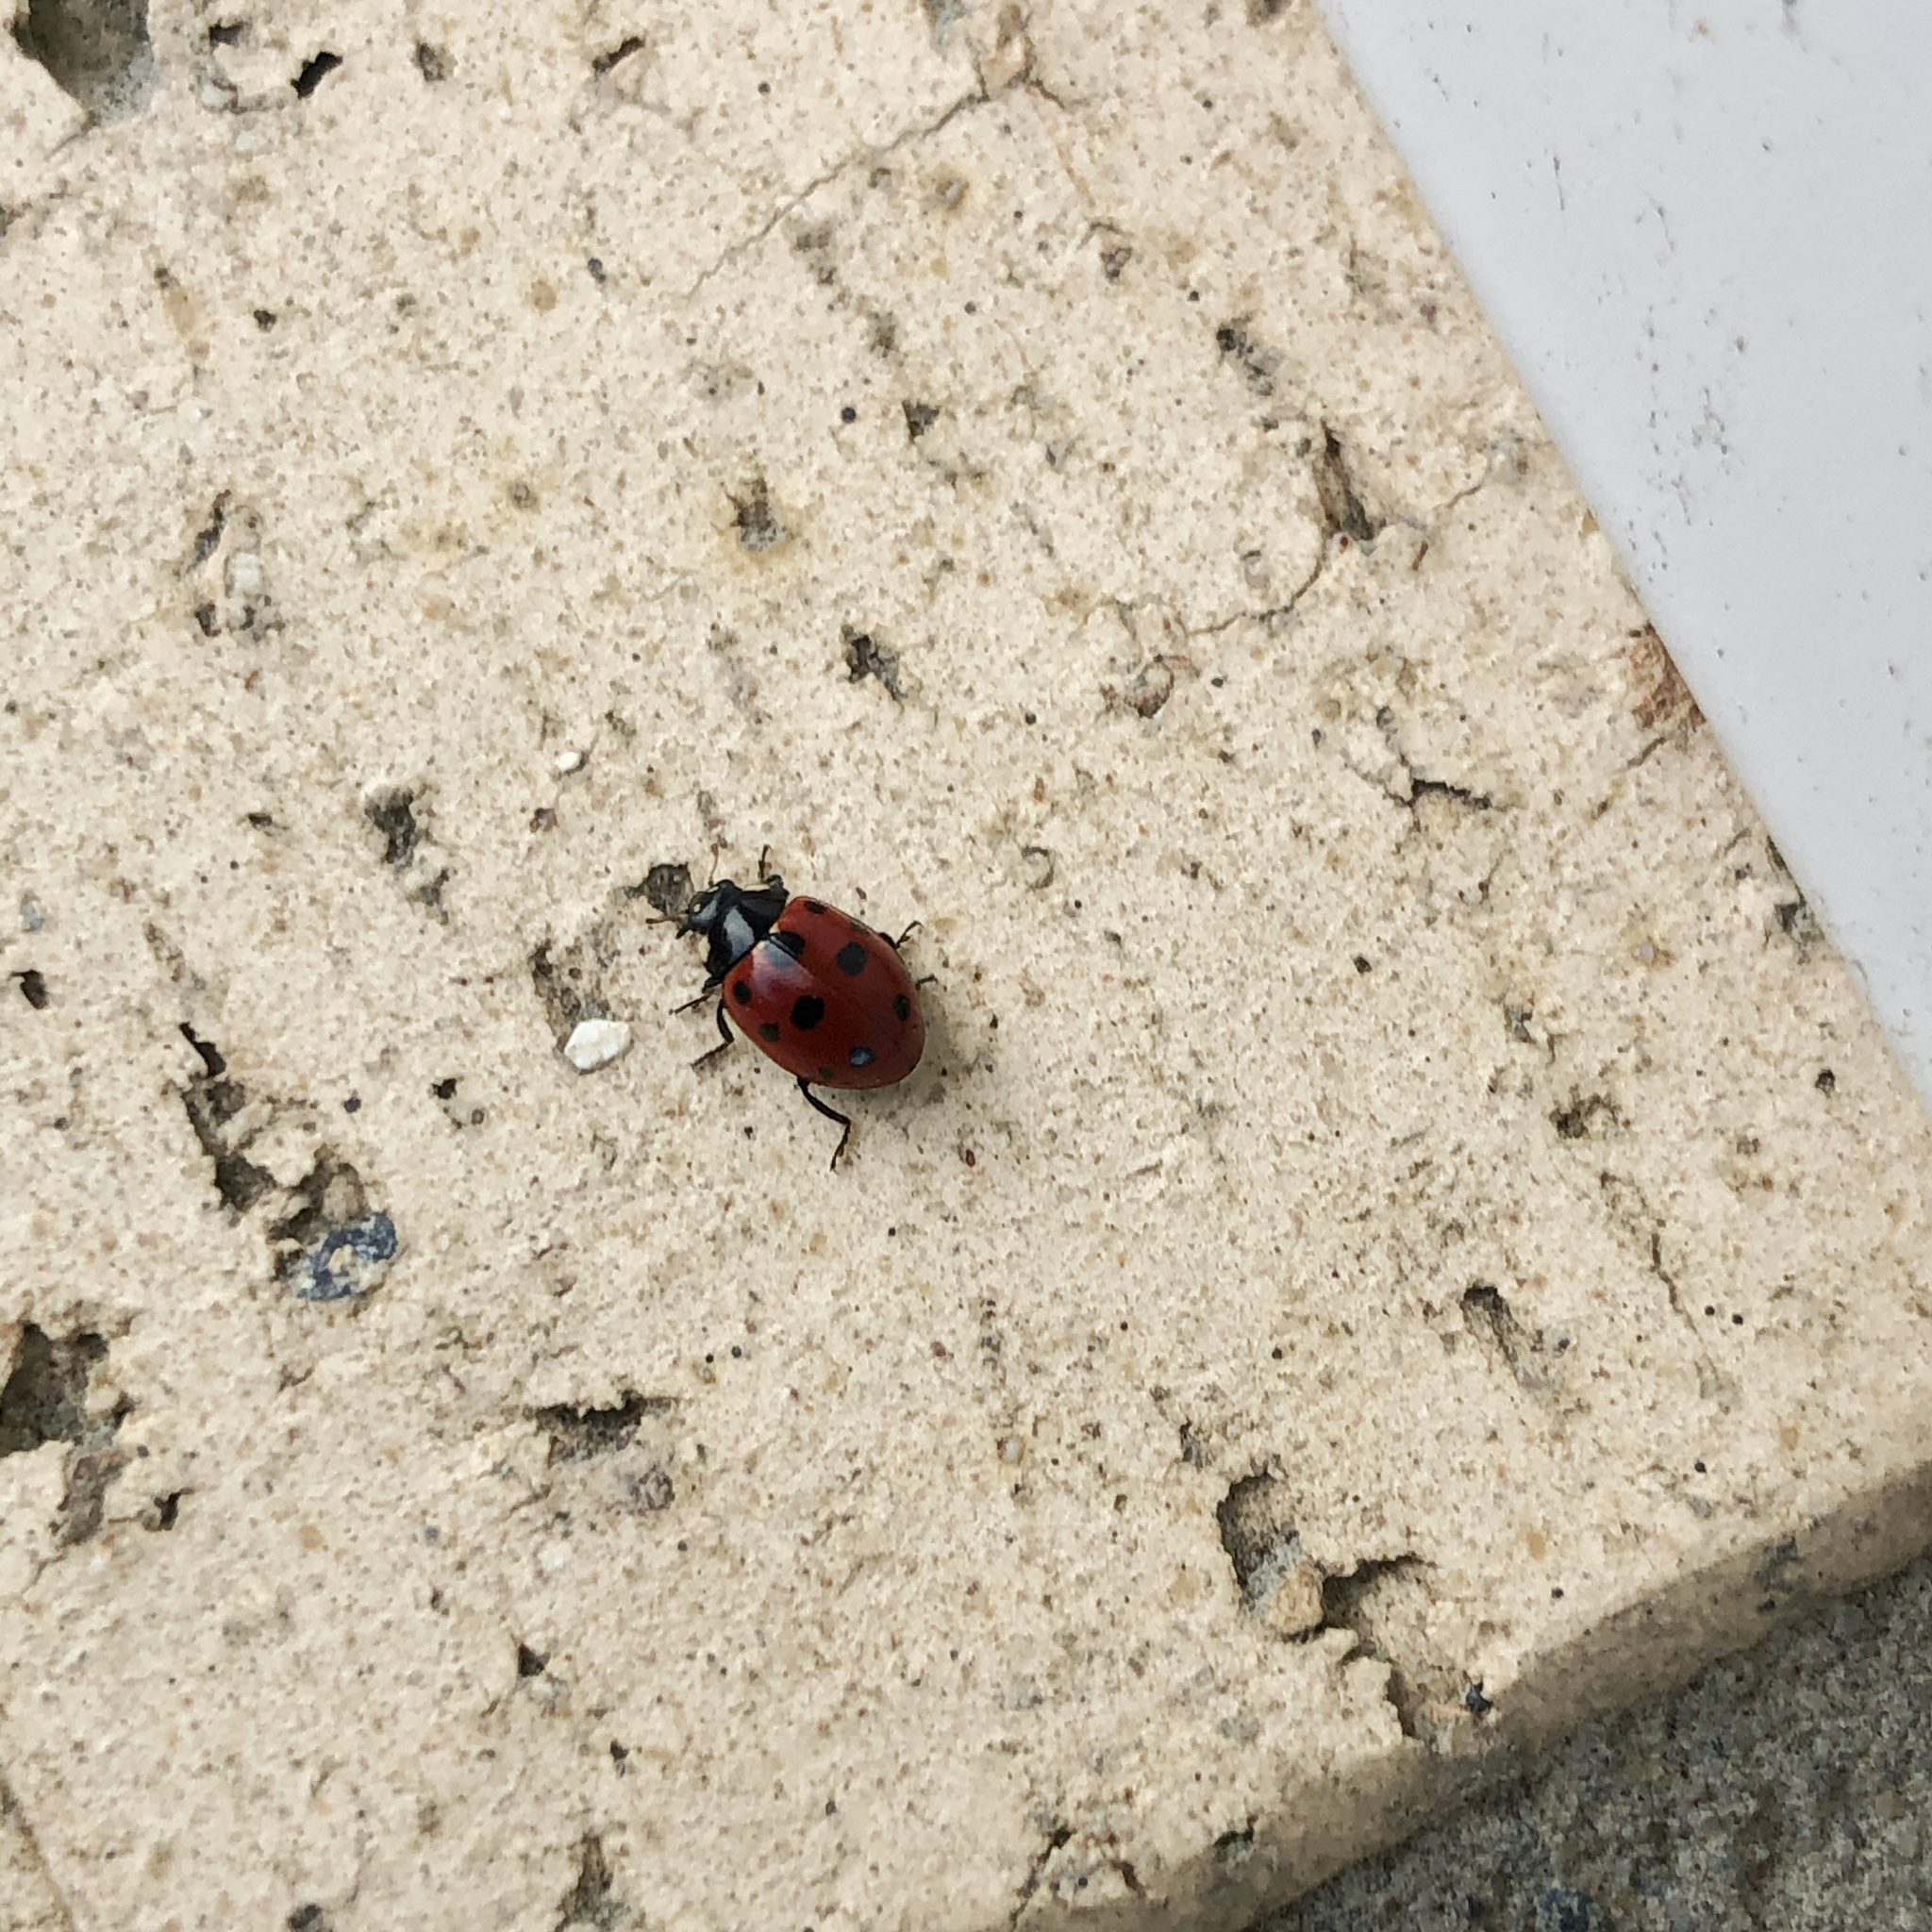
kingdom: Animalia
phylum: Arthropoda
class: Insecta
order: Coleoptera
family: Coccinellidae
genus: Coccinella
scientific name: Coccinella undecimpunctata
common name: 11-spot ladybird
